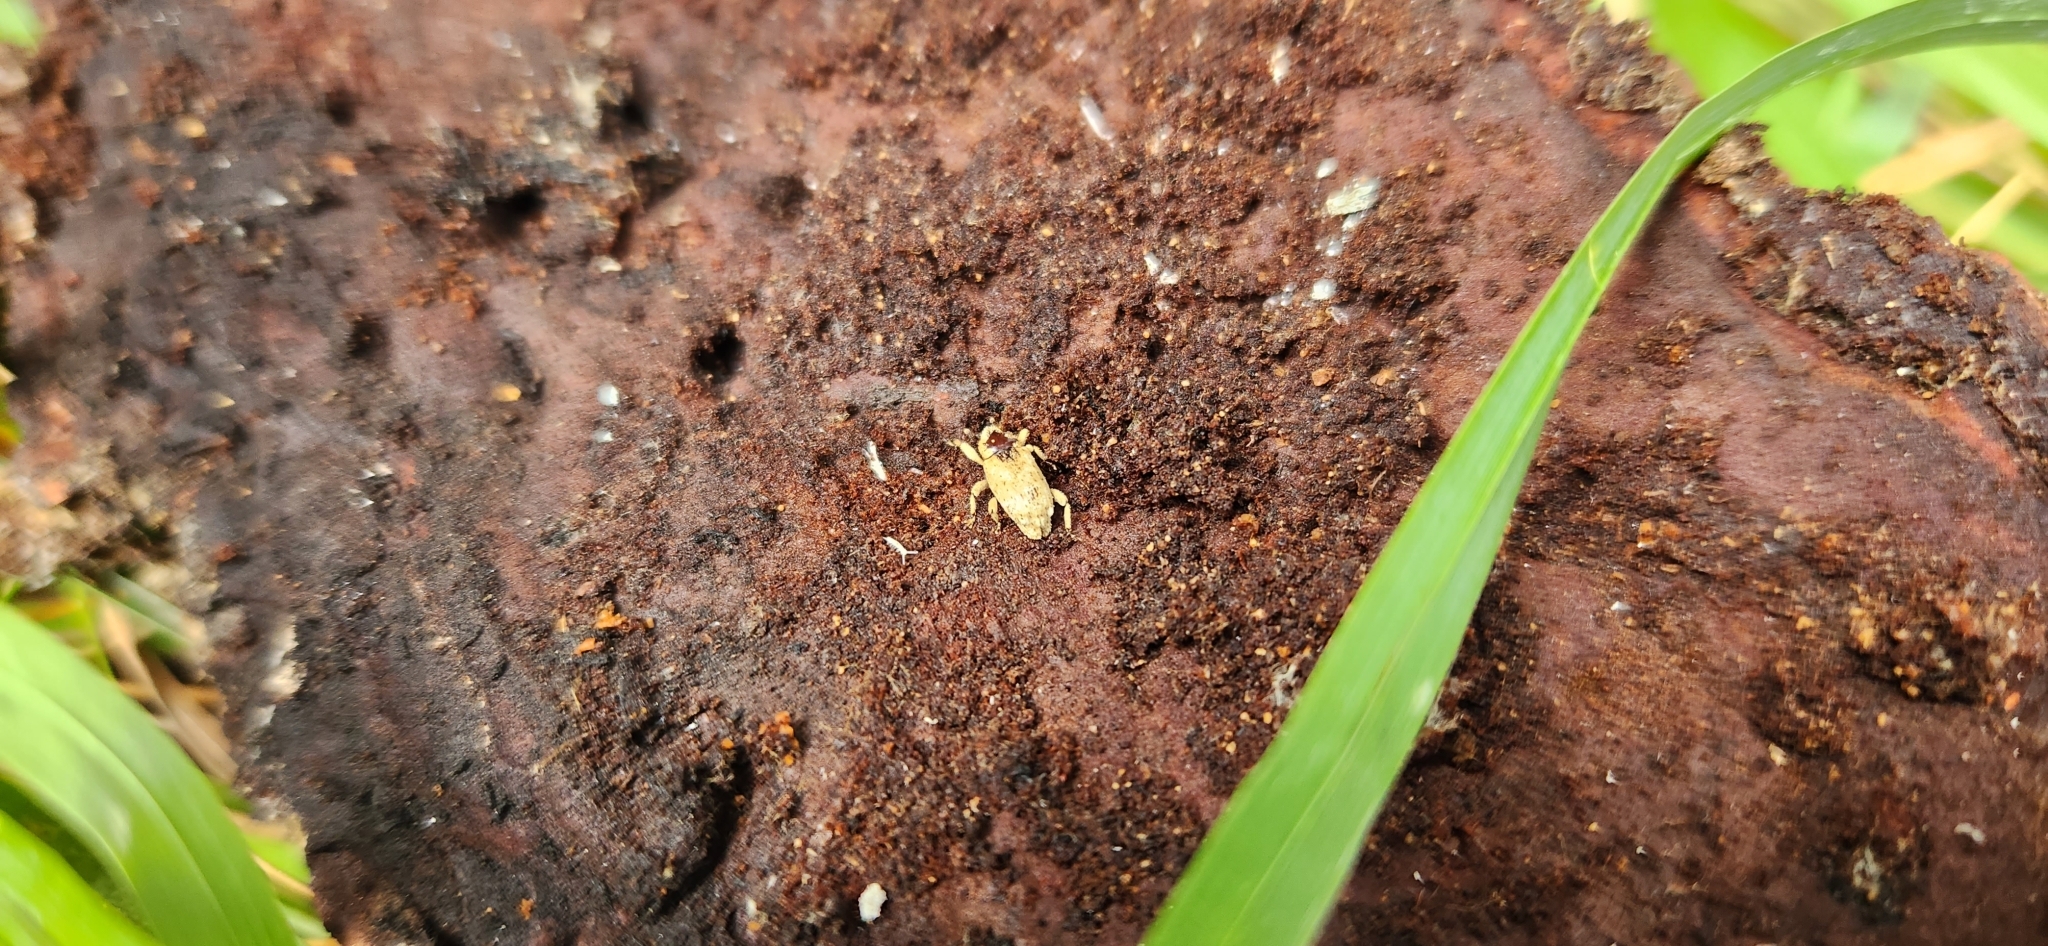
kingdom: Animalia
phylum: Arthropoda
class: Insecta
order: Coleoptera
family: Curculionidae
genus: Mitrastethus
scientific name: Mitrastethus baridioides
